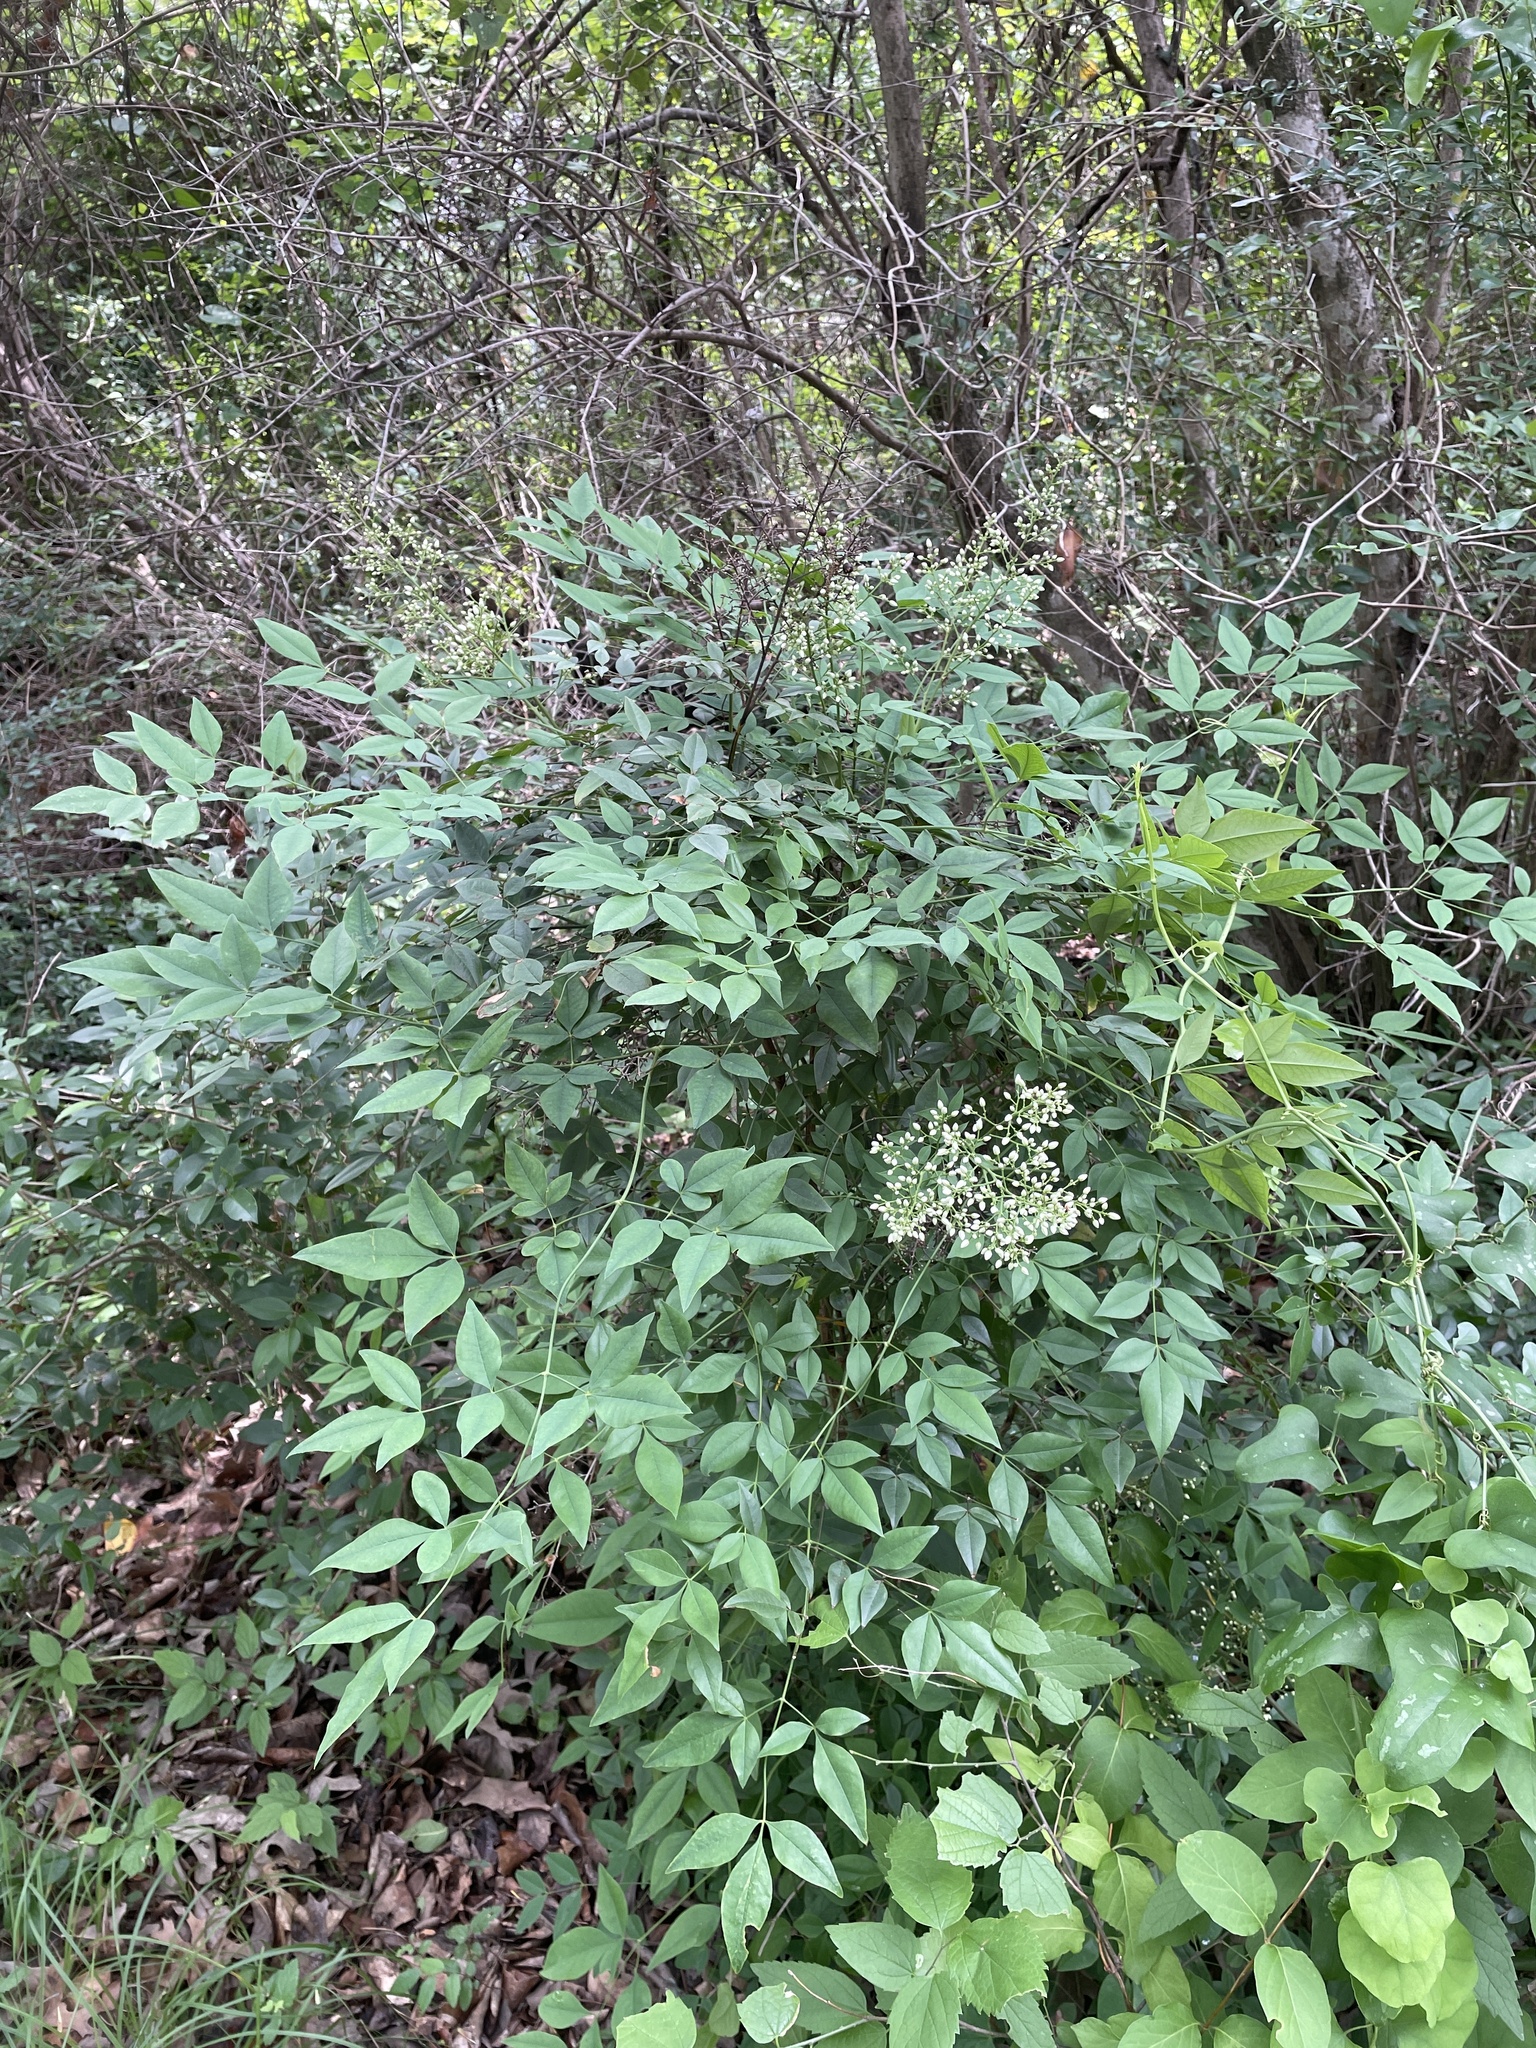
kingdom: Plantae
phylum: Tracheophyta
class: Magnoliopsida
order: Ranunculales
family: Berberidaceae
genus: Nandina
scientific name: Nandina domestica
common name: Sacred bamboo
